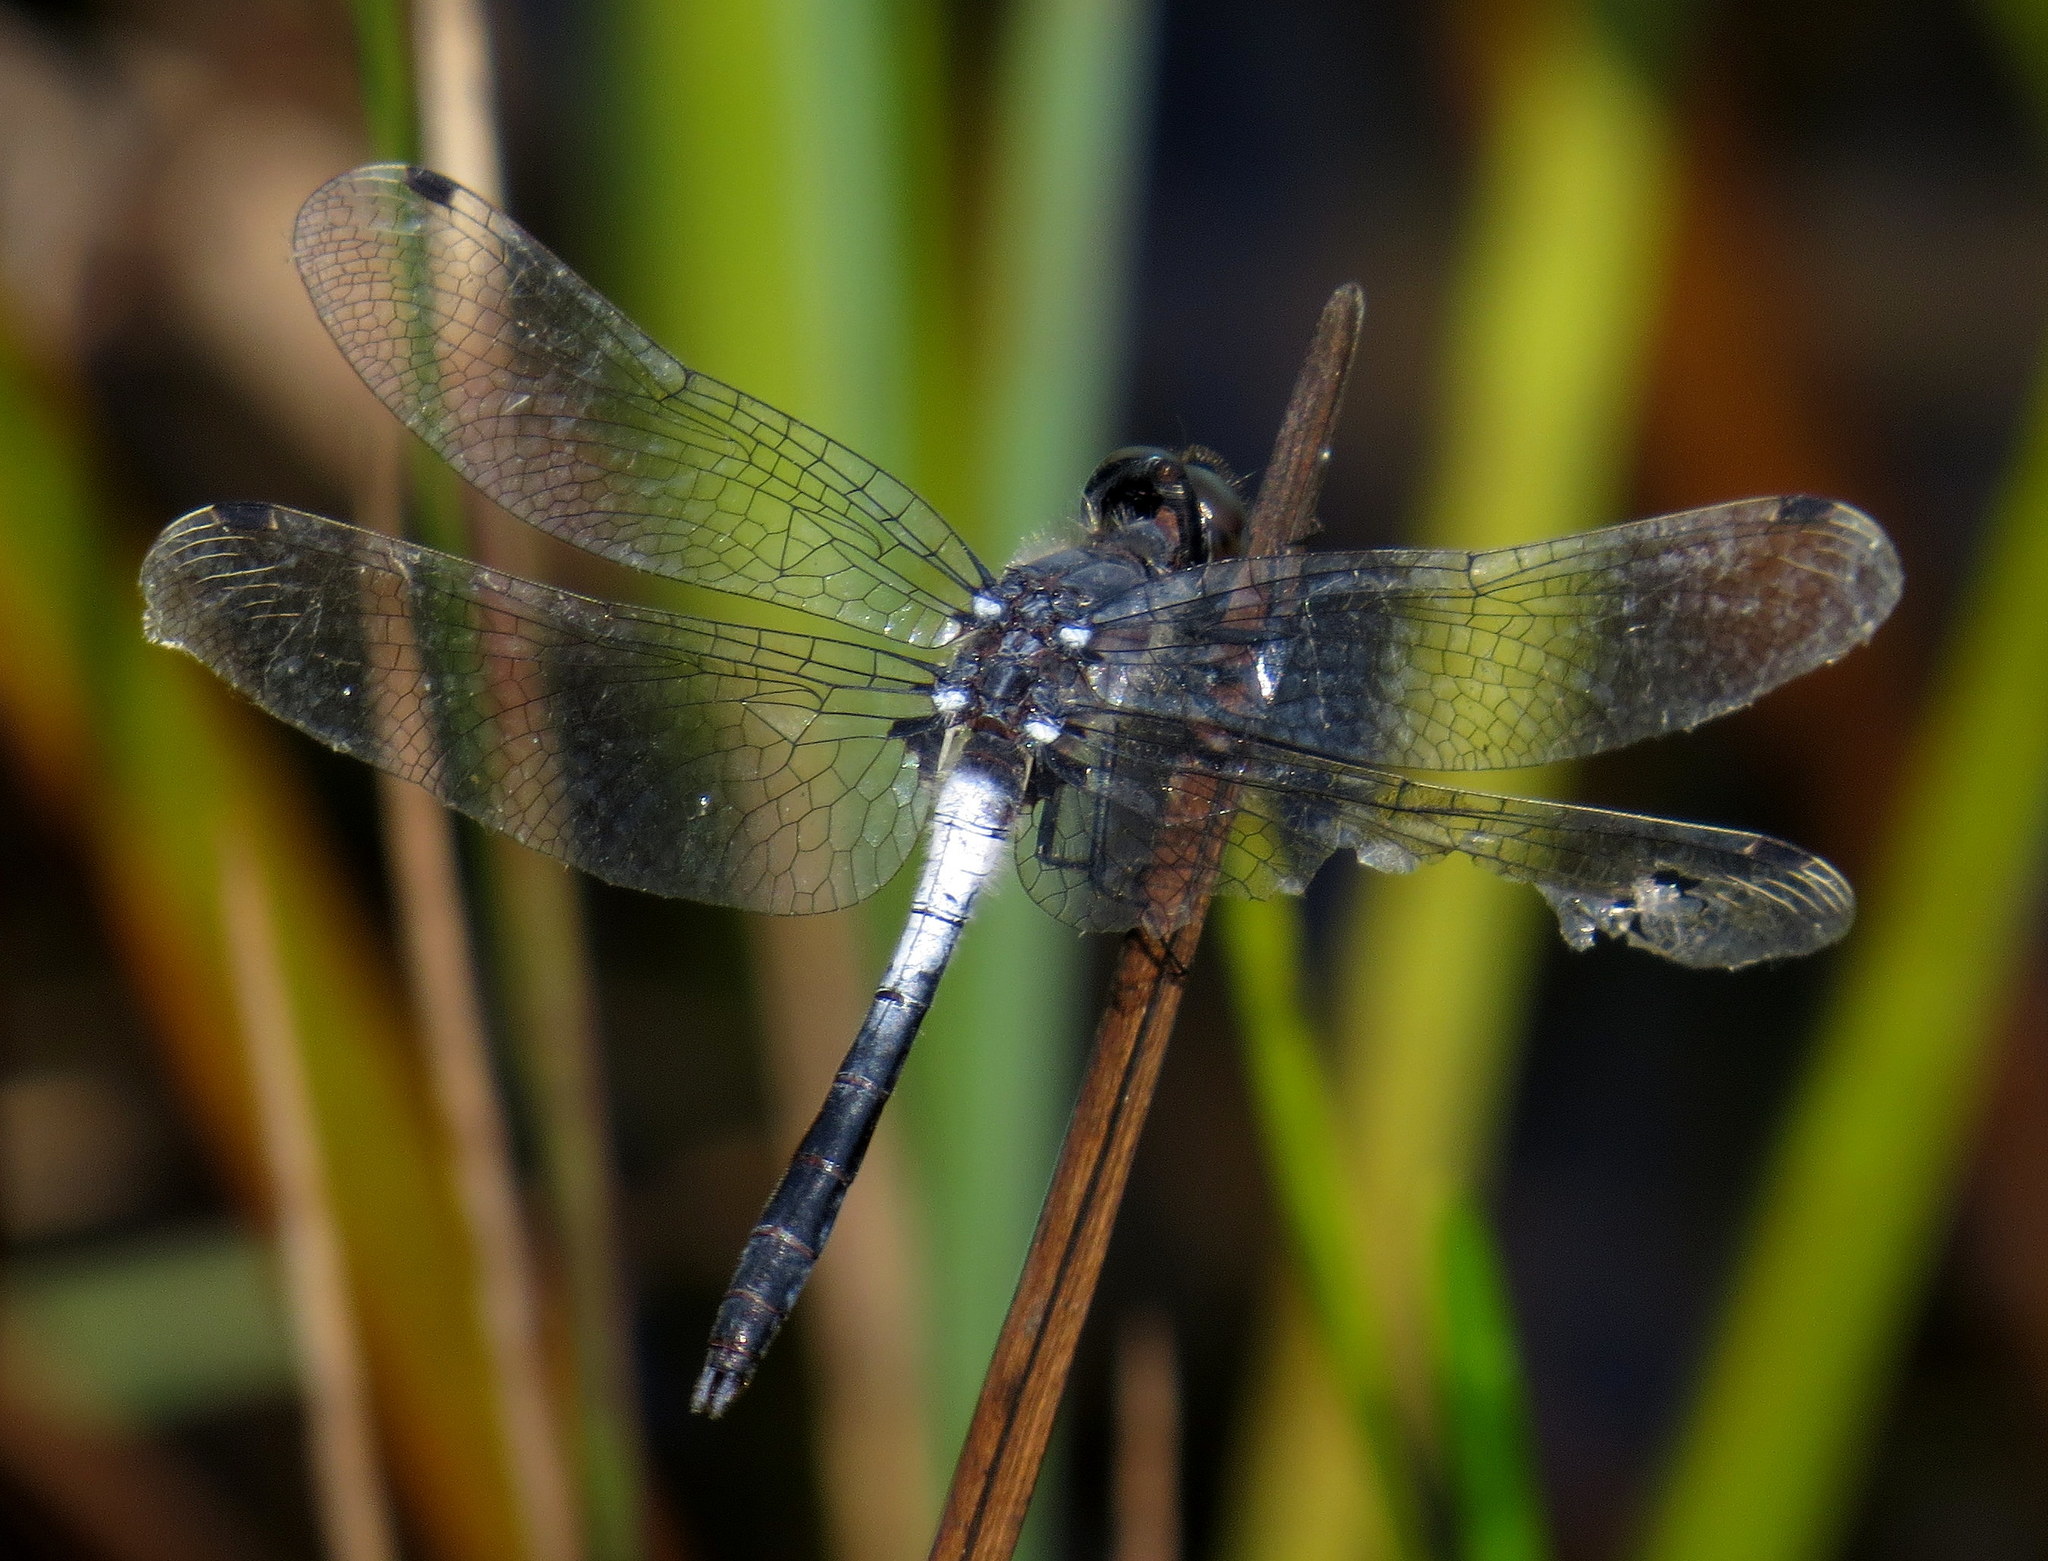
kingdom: Animalia
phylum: Arthropoda
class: Insecta
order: Odonata
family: Libellulidae
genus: Leucorrhinia
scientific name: Leucorrhinia frigida
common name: Frosted whiteface
